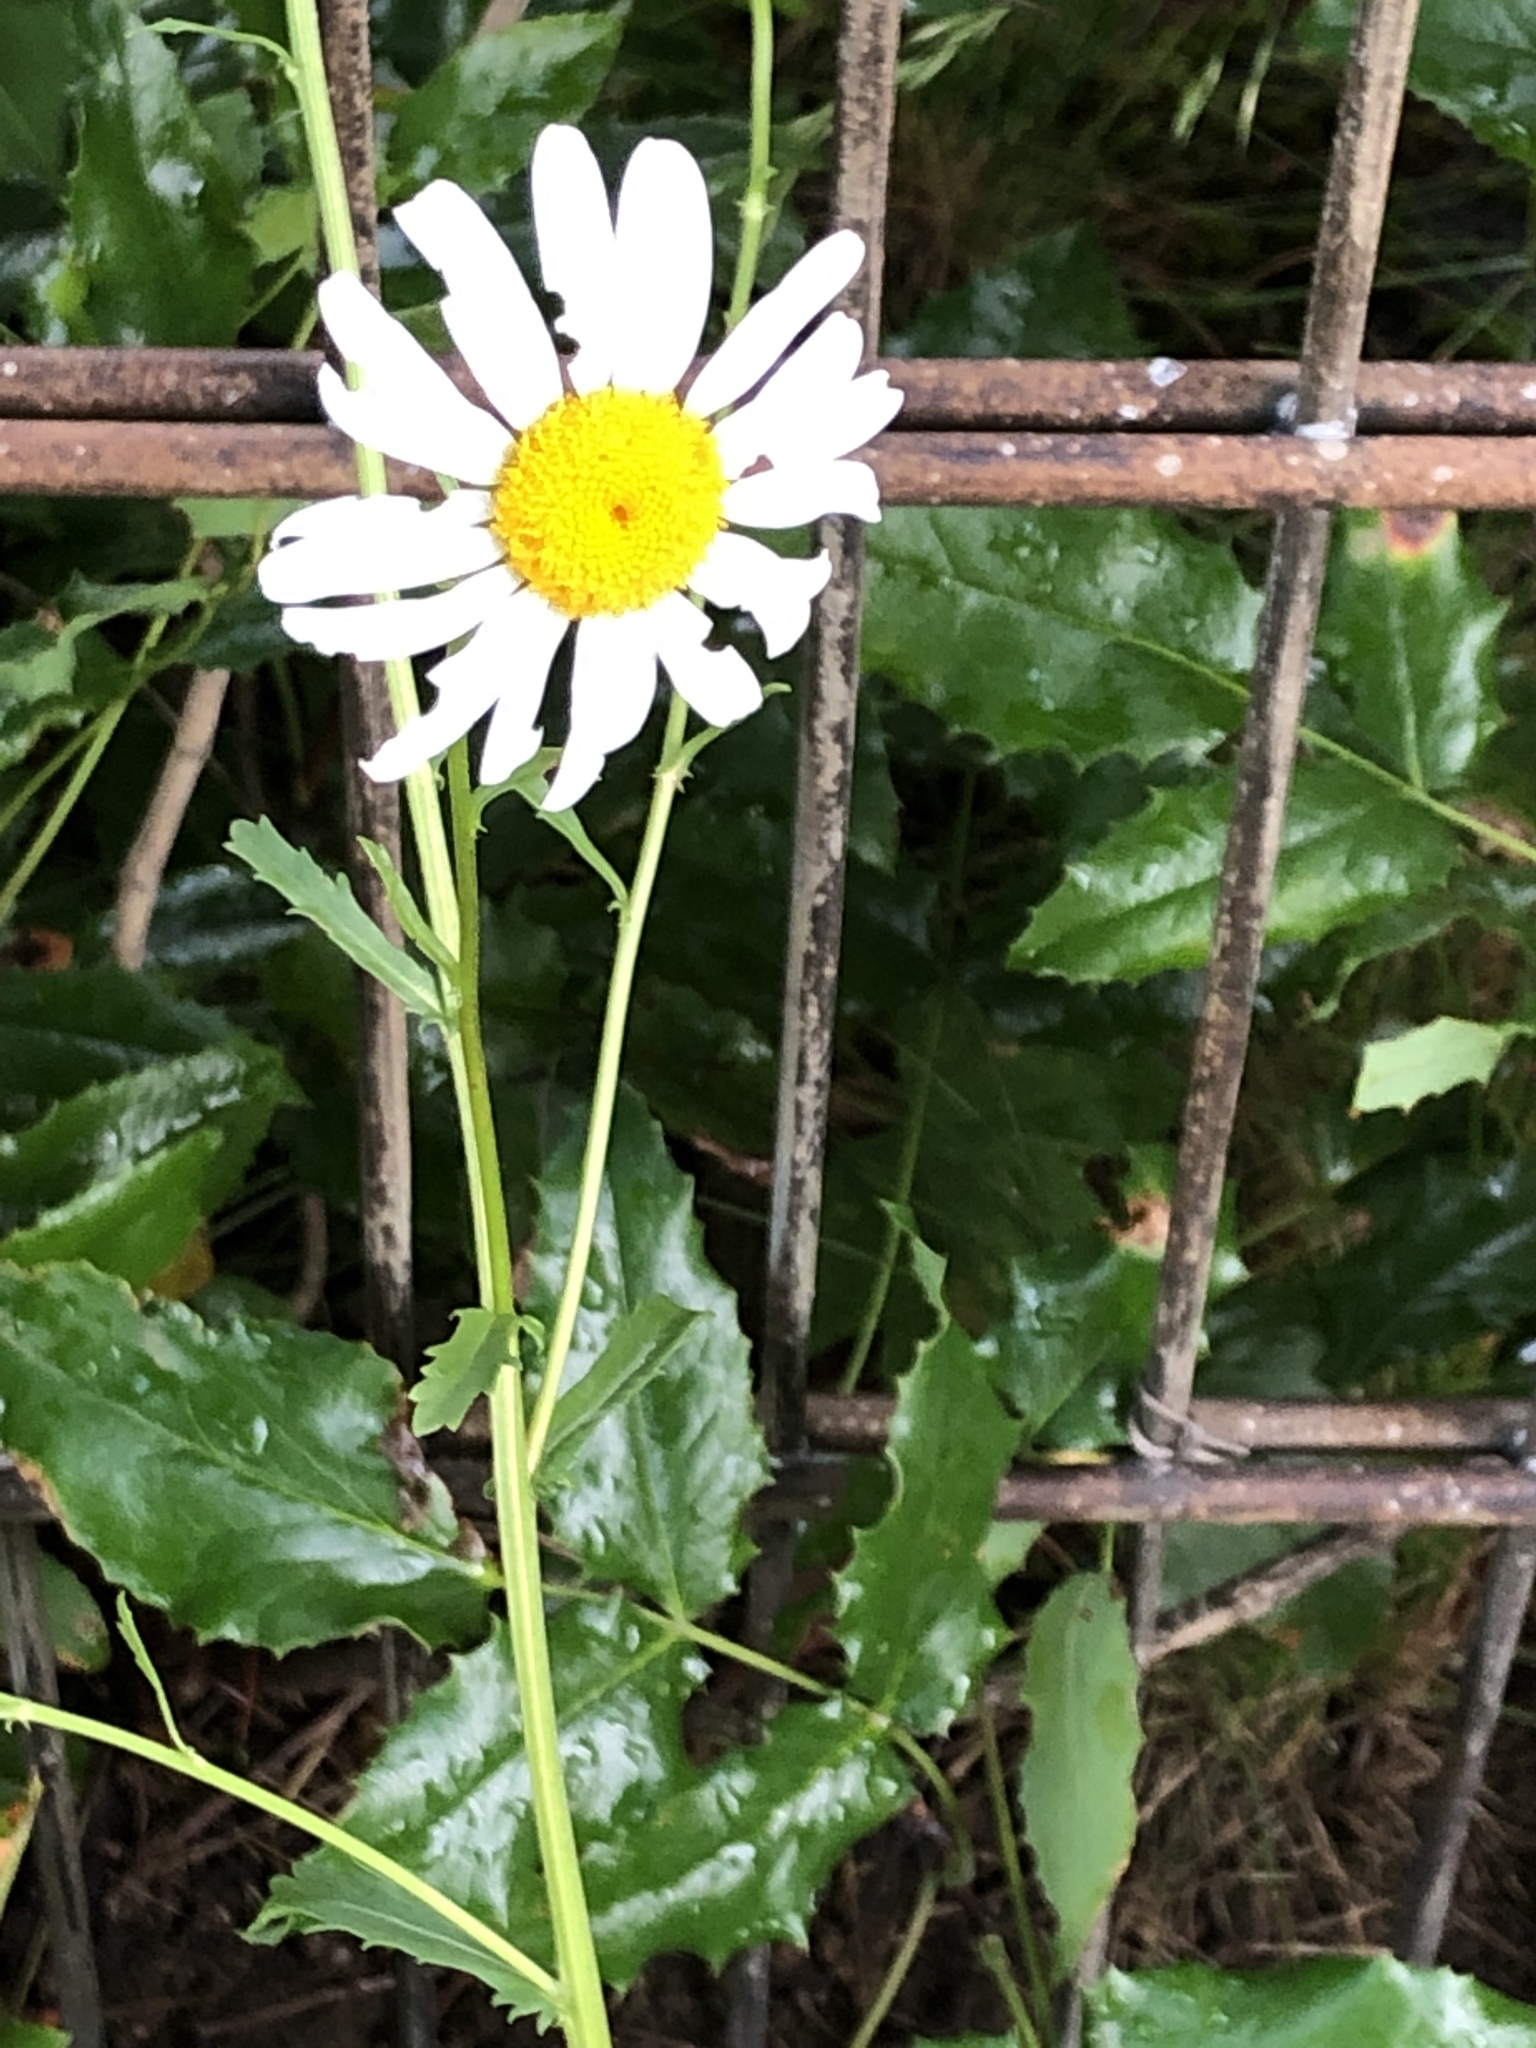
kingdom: Plantae
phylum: Tracheophyta
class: Magnoliopsida
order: Asterales
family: Asteraceae
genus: Leucanthemum
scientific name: Leucanthemum vulgare
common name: Oxeye daisy
